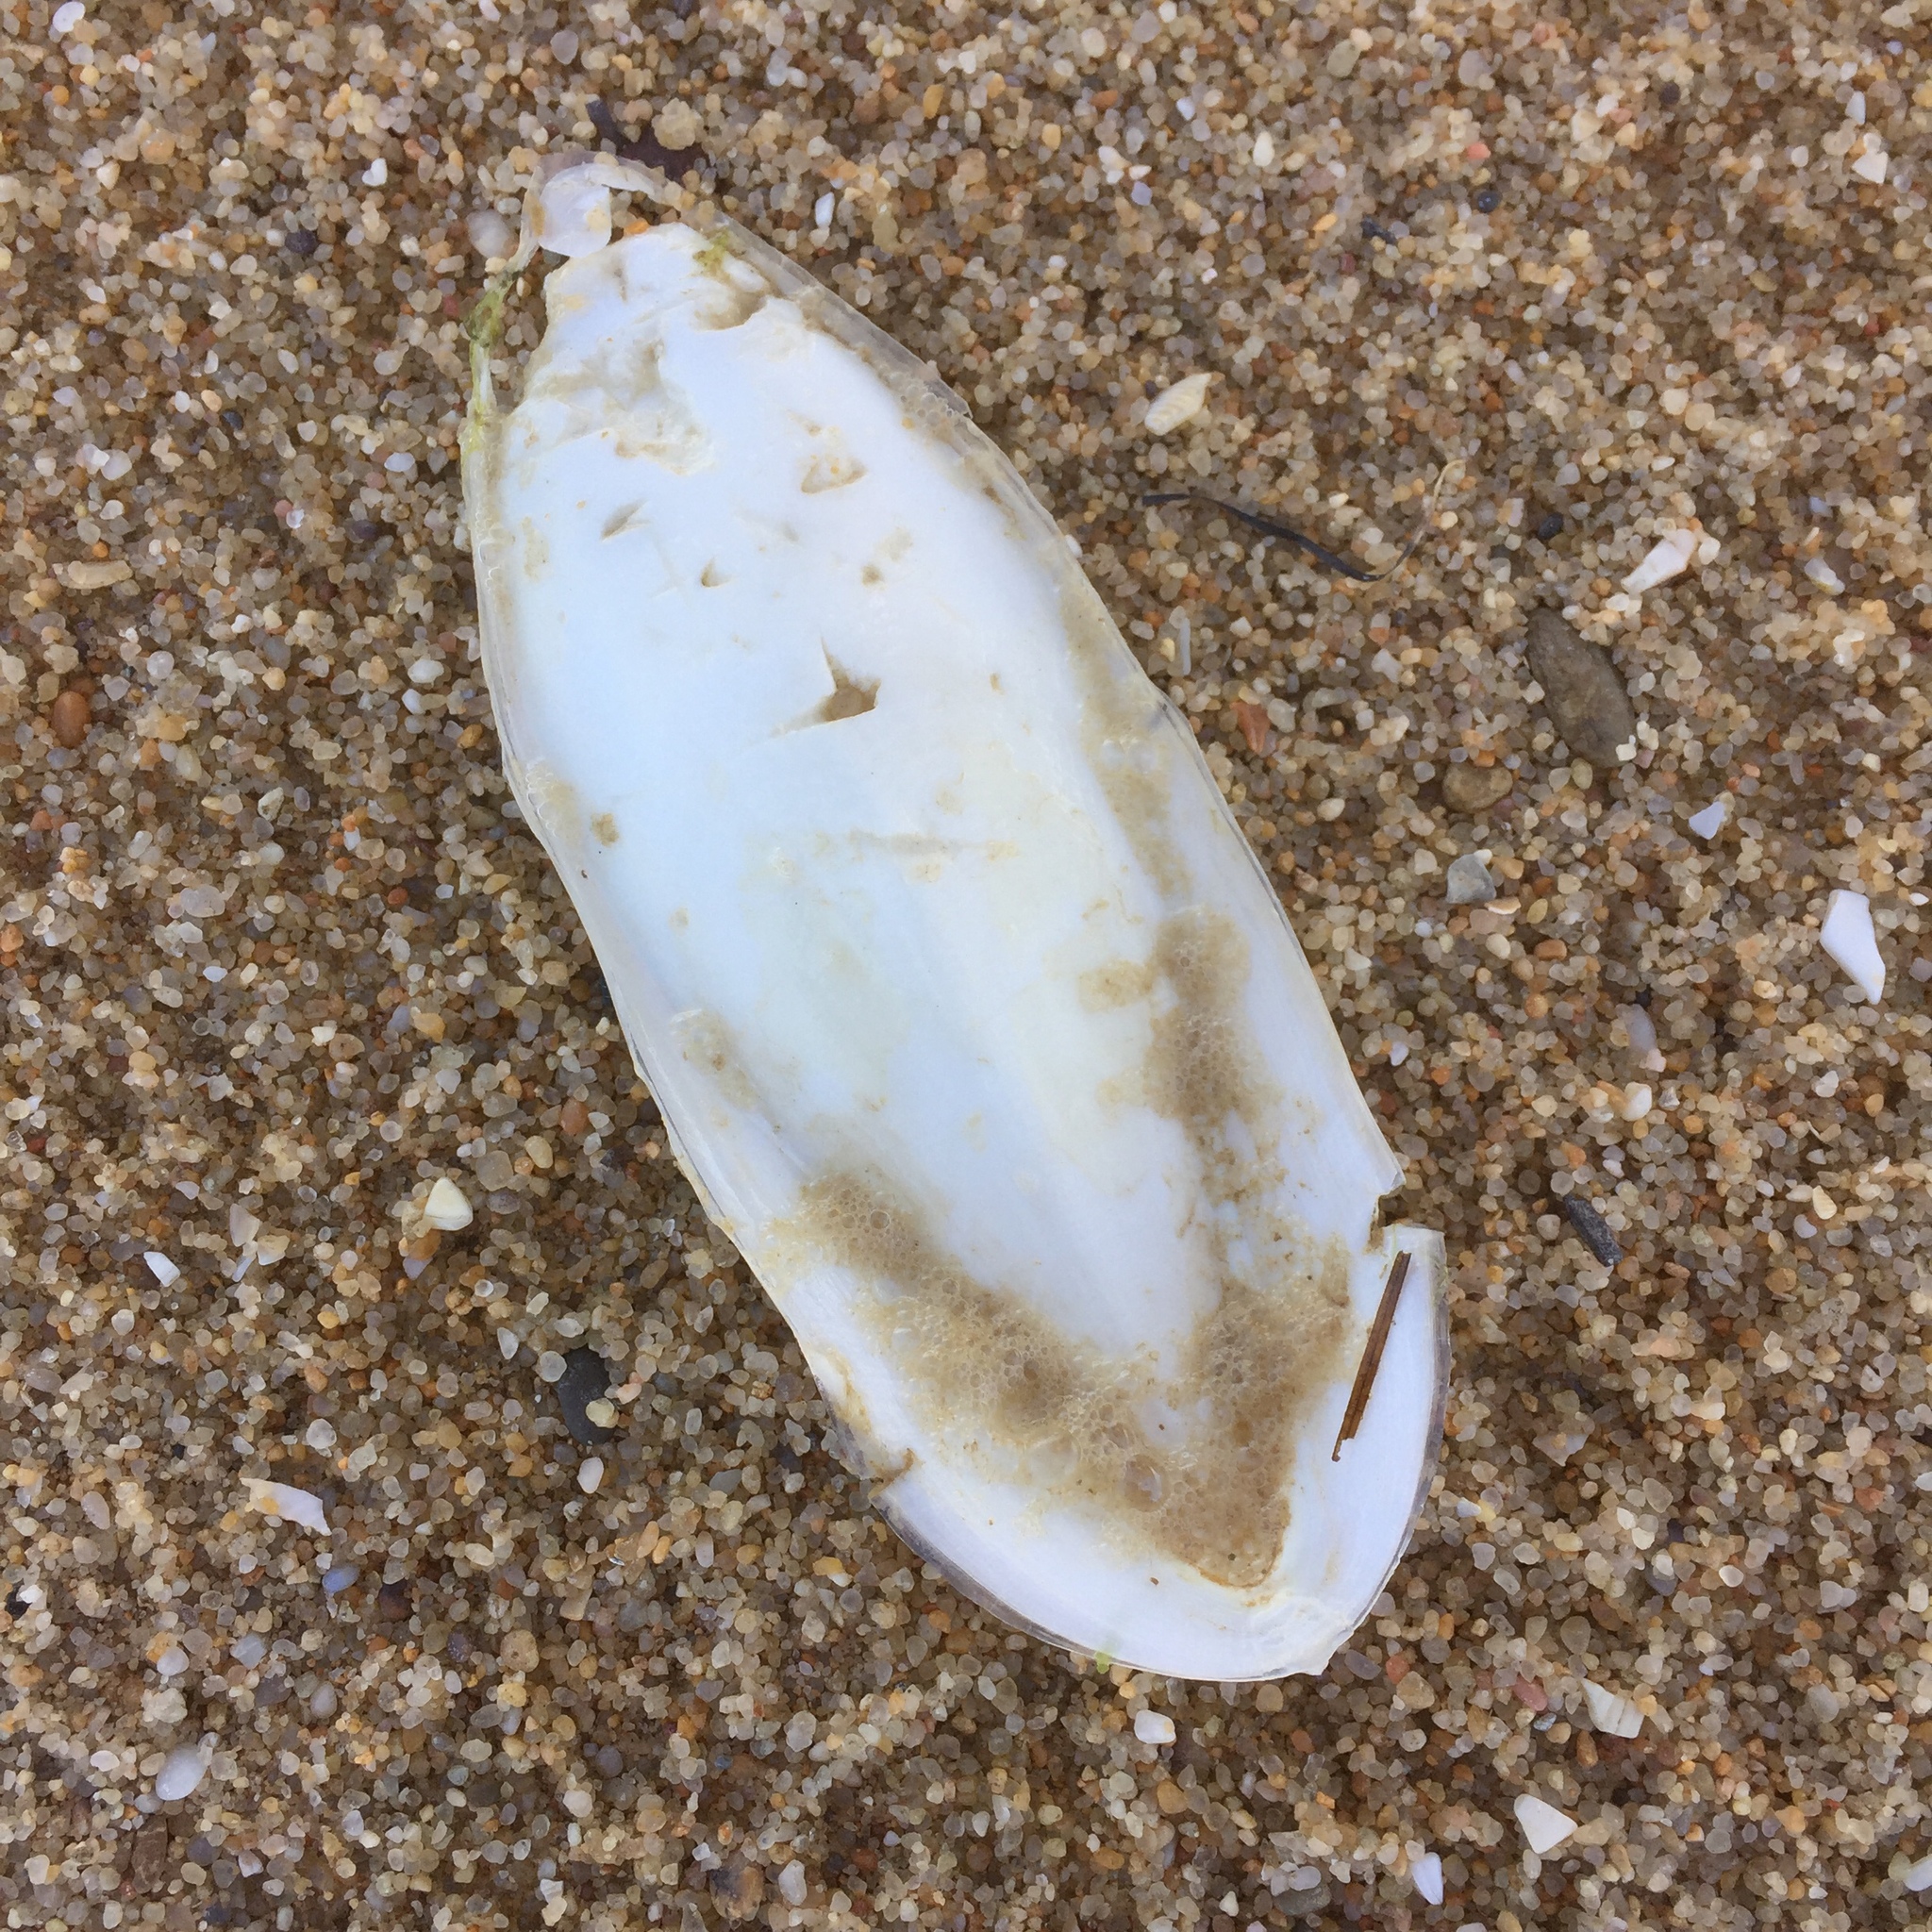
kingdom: Animalia
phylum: Mollusca
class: Cephalopoda
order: Sepiida
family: Sepiidae
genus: Sepia
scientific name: Sepia officinalis
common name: Common cuttlefish
